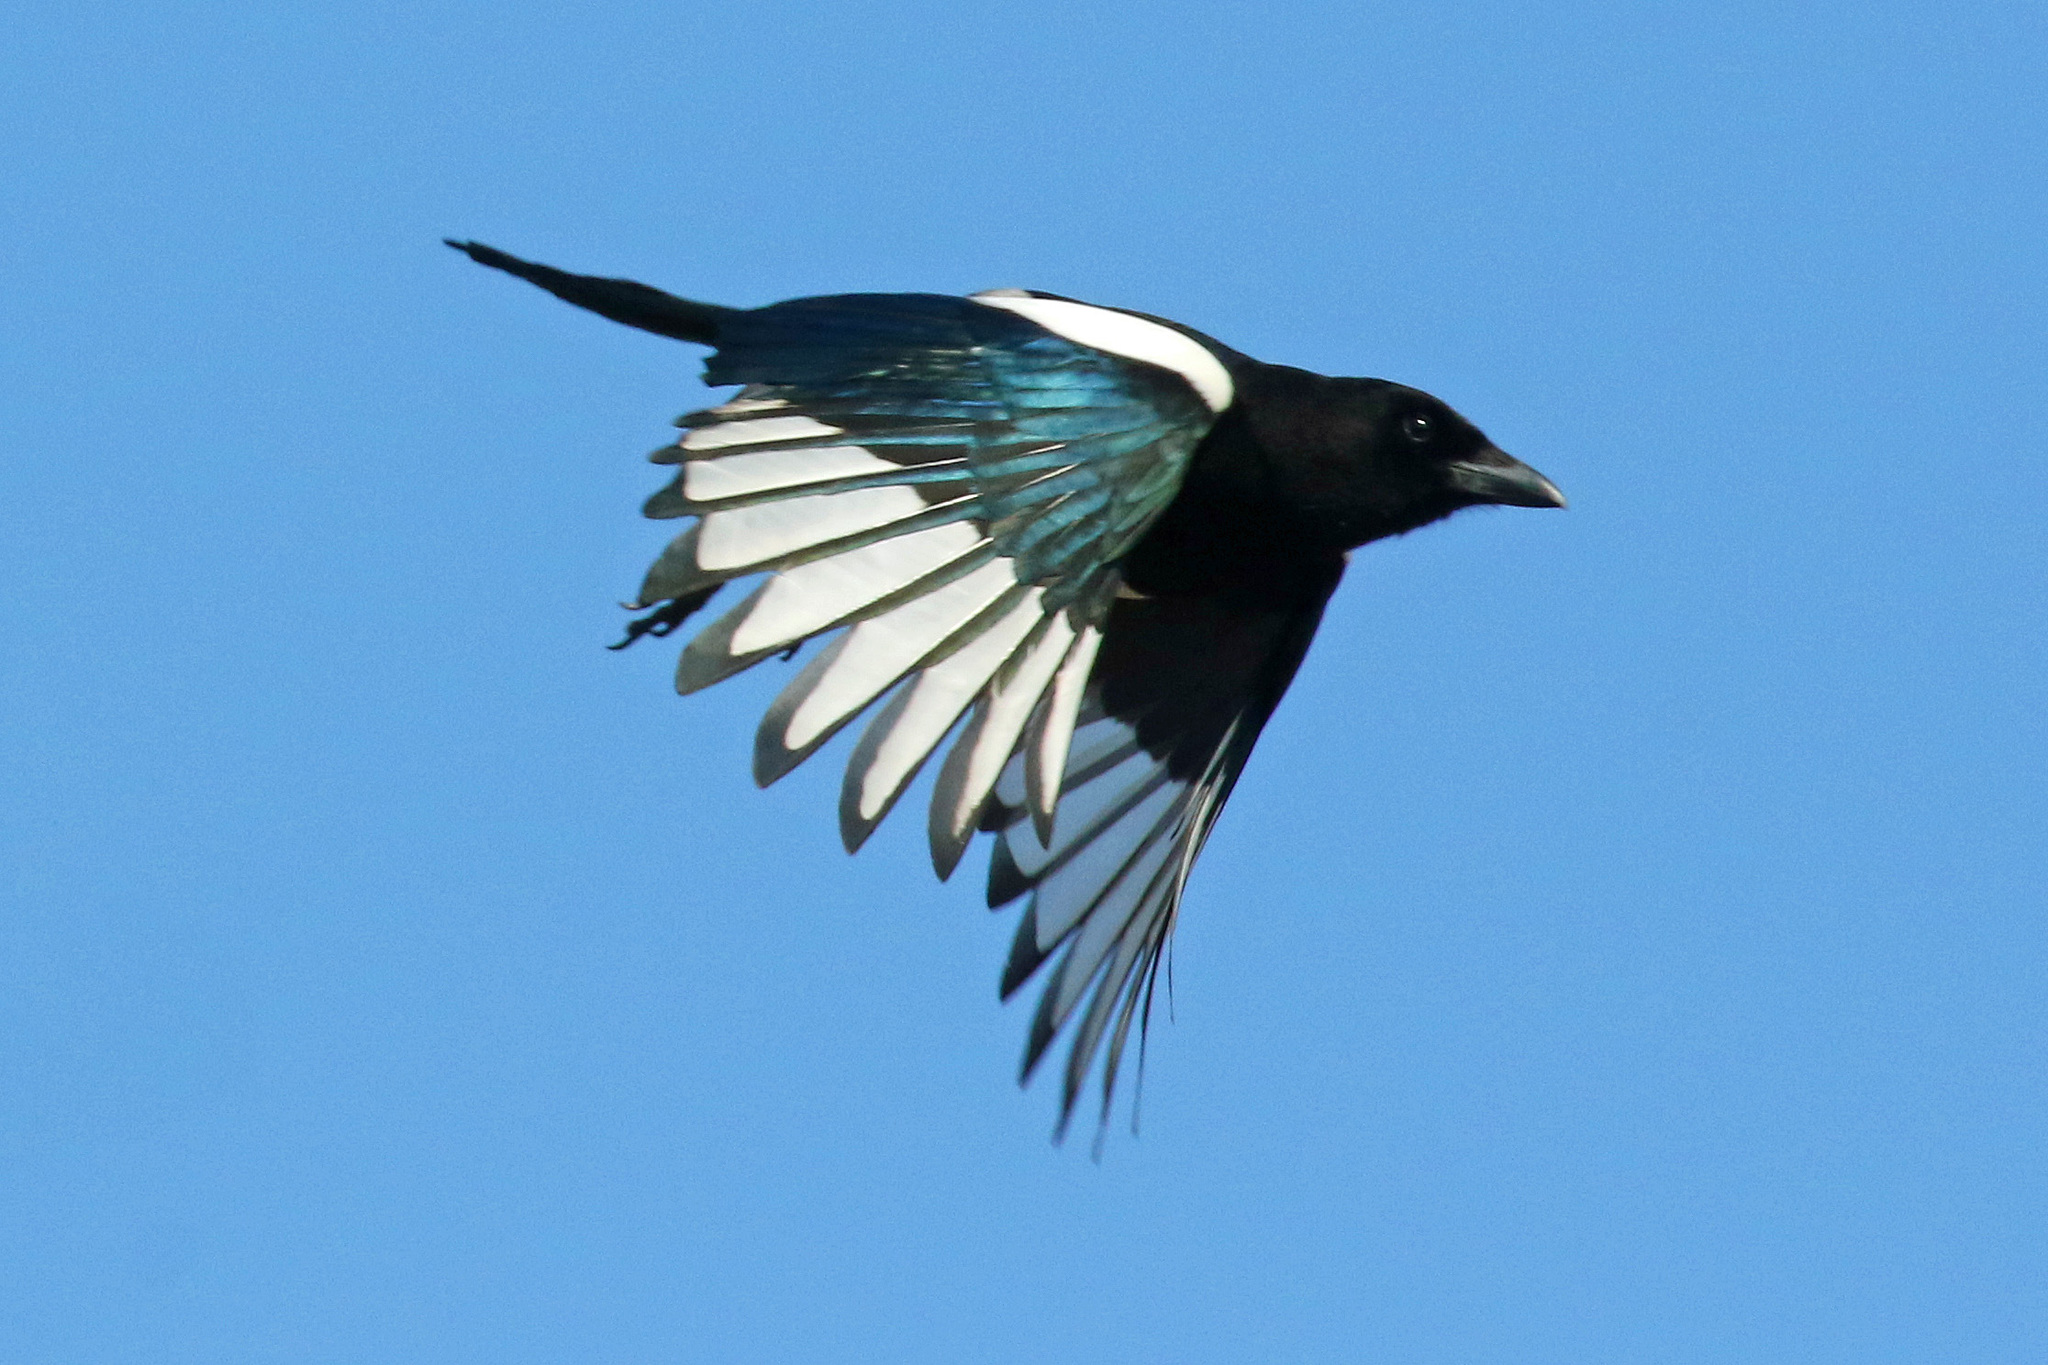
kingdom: Animalia
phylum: Chordata
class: Aves
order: Passeriformes
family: Corvidae
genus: Pica
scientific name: Pica pica
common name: Eurasian magpie
